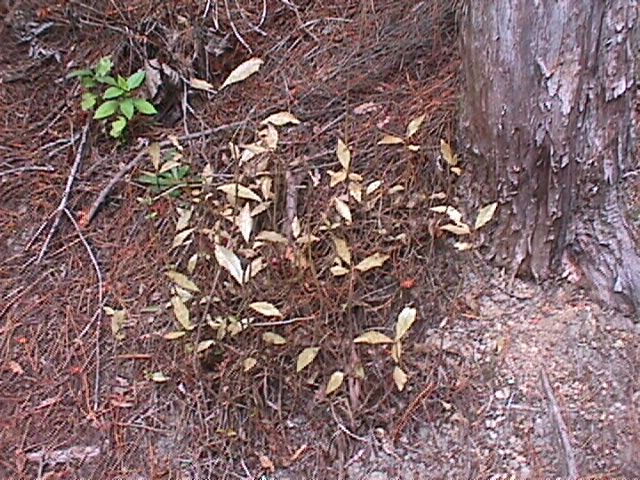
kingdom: Plantae
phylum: Tracheophyta
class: Magnoliopsida
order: Asterales
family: Alseuosmiaceae
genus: Alseuosmia
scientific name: Alseuosmia macrophylla
